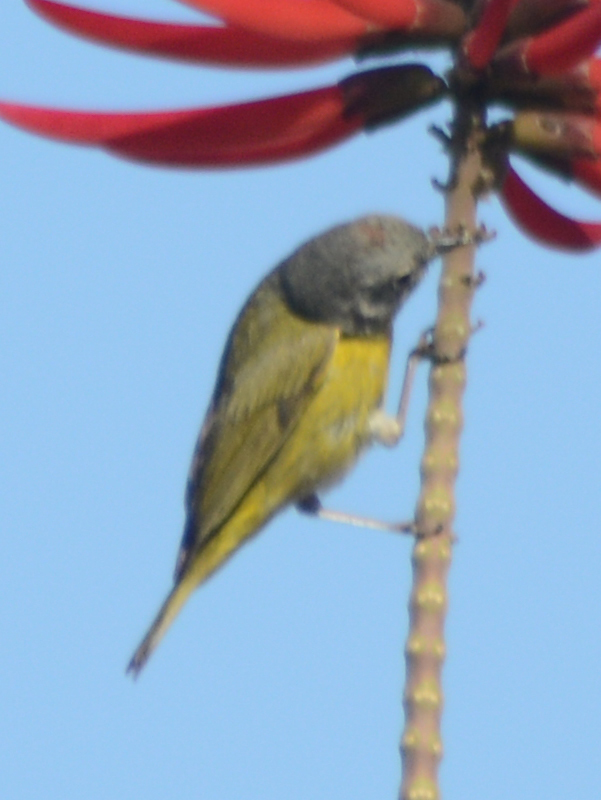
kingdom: Animalia
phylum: Chordata
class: Aves
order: Passeriformes
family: Parulidae
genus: Leiothlypis
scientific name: Leiothlypis ruficapilla
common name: Nashville warbler
